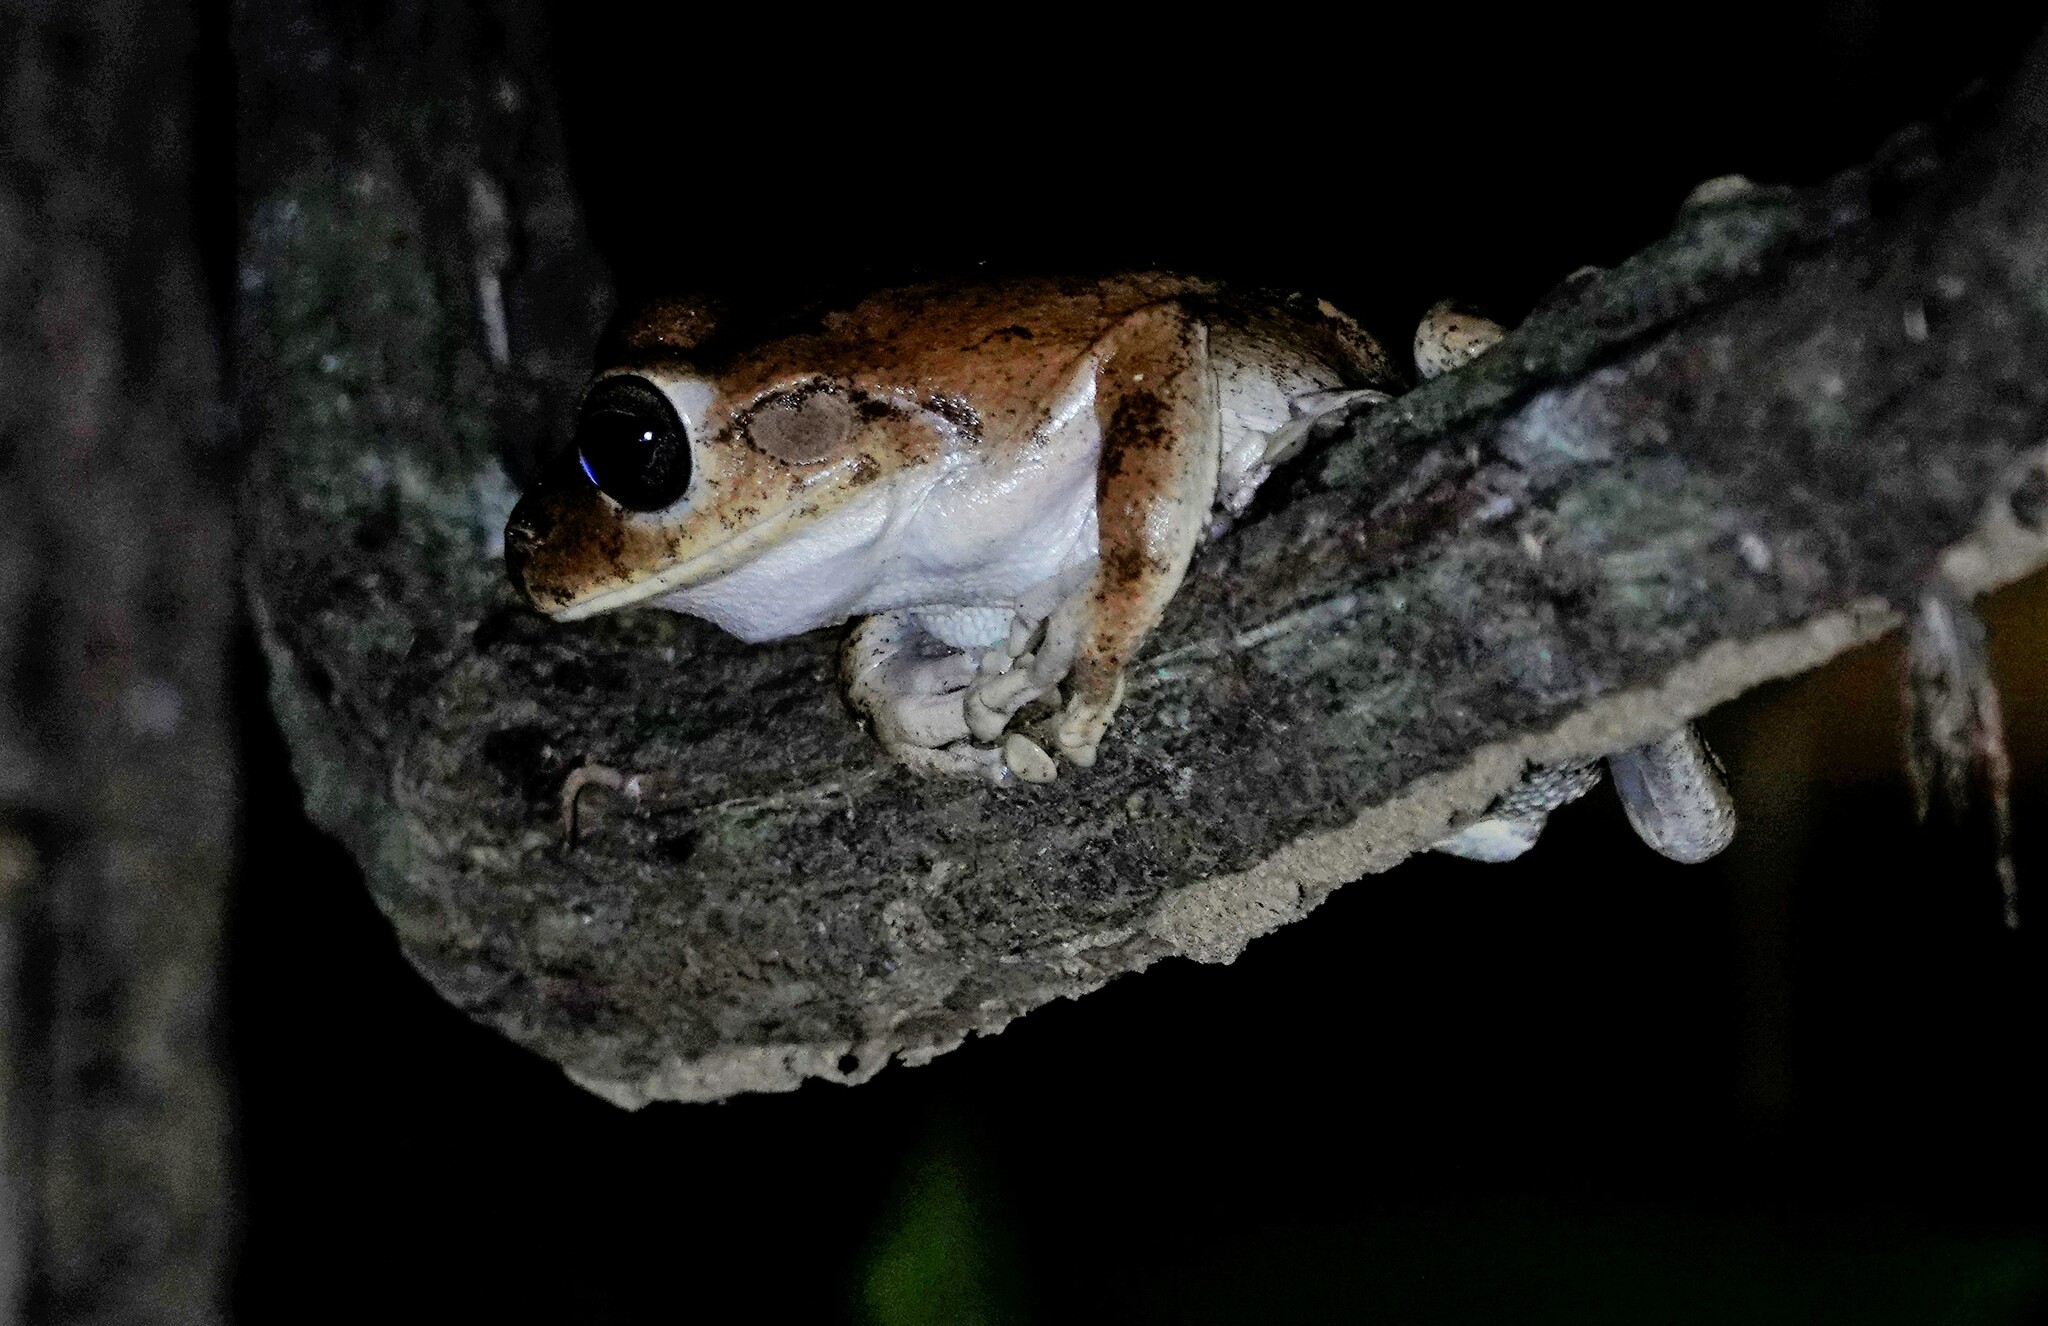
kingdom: Animalia
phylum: Chordata
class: Amphibia
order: Anura
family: Hylidae
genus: Boana
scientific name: Boana pugnax
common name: Chirique-flusse treefrog
